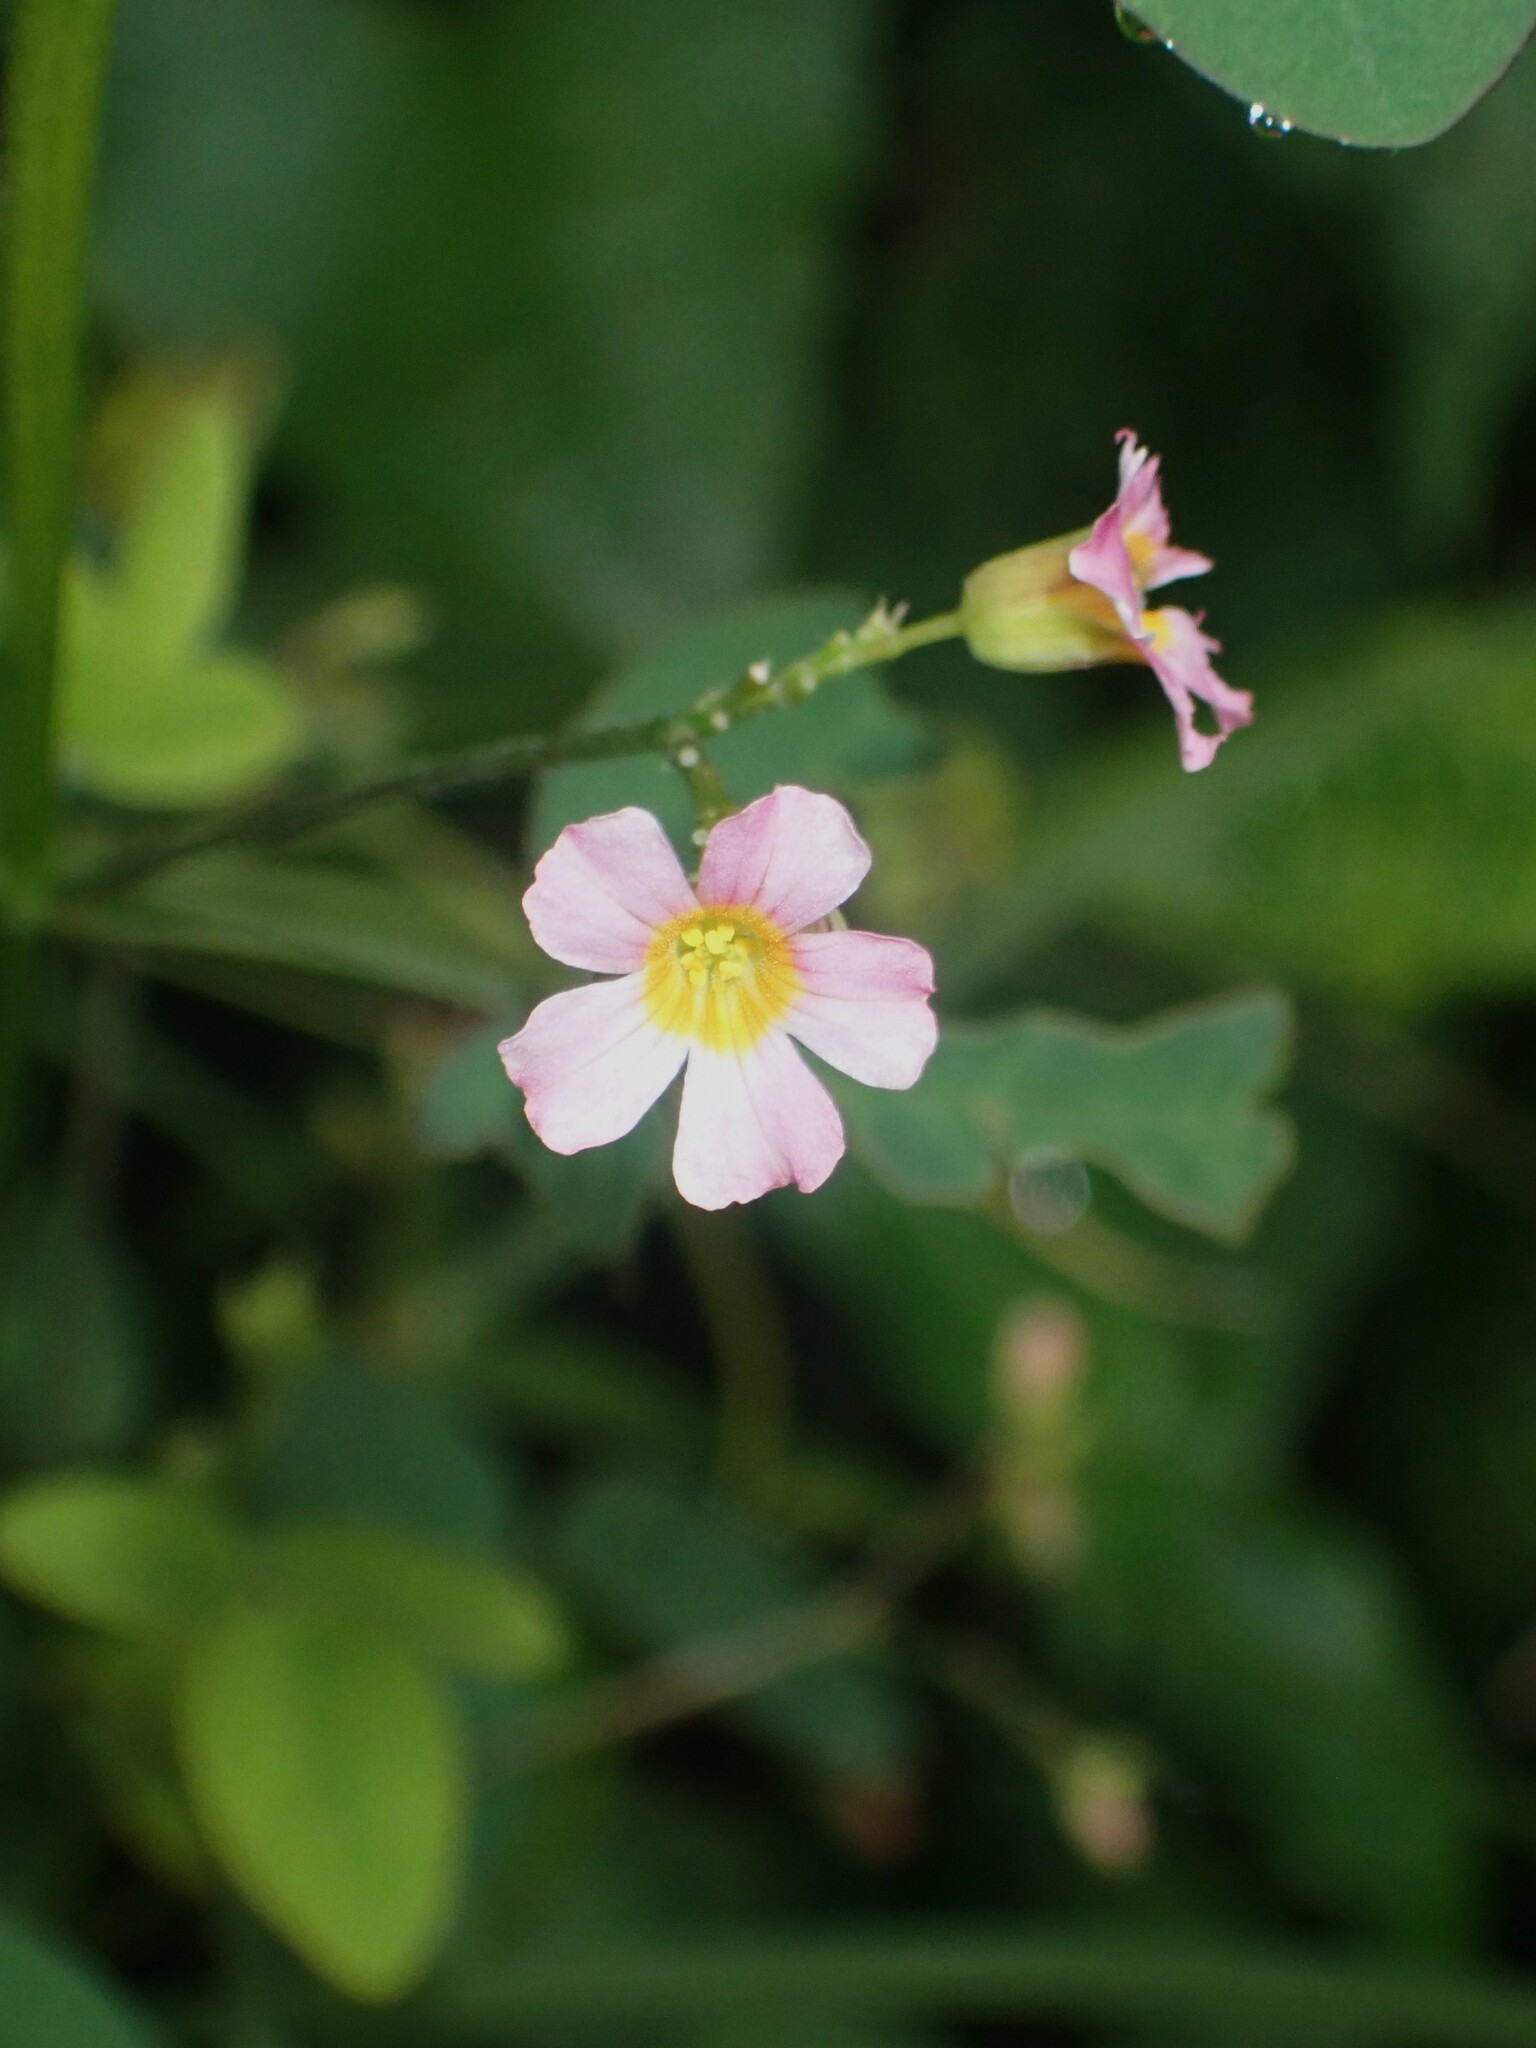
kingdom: Plantae
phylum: Tracheophyta
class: Magnoliopsida
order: Oxalidales
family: Oxalidaceae
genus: Oxalis
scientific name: Oxalis barrelieri
